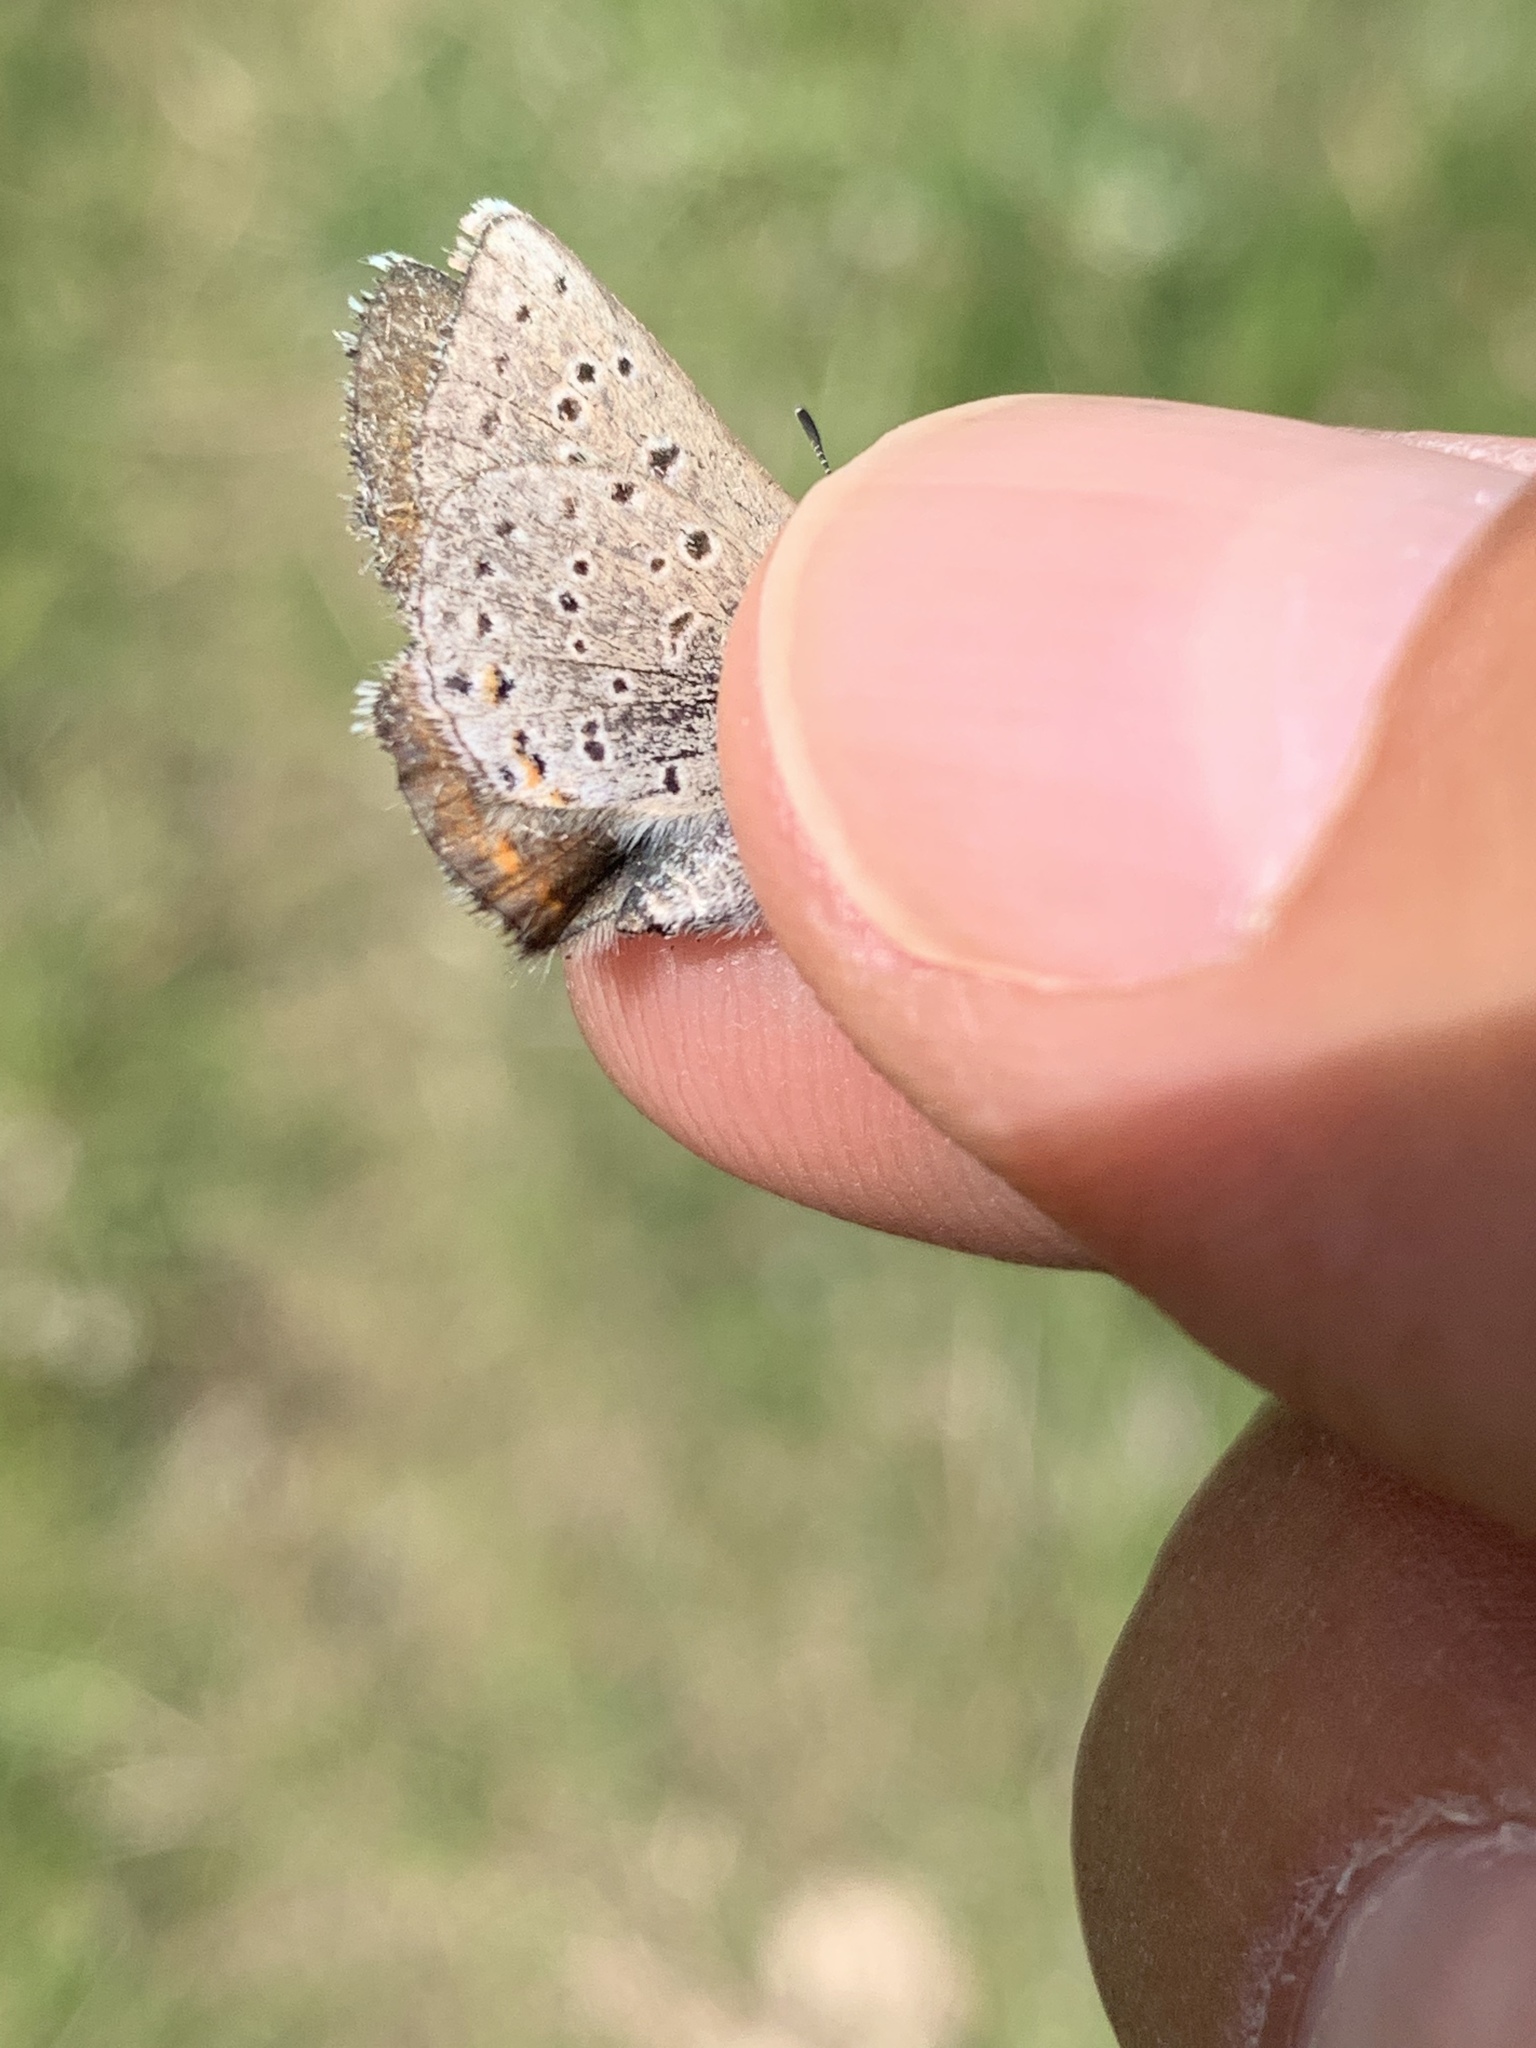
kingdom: Animalia
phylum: Arthropoda
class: Insecta
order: Lepidoptera
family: Lycaenidae
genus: Icaricia
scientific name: Icaricia saepiolus
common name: Greenish blue
